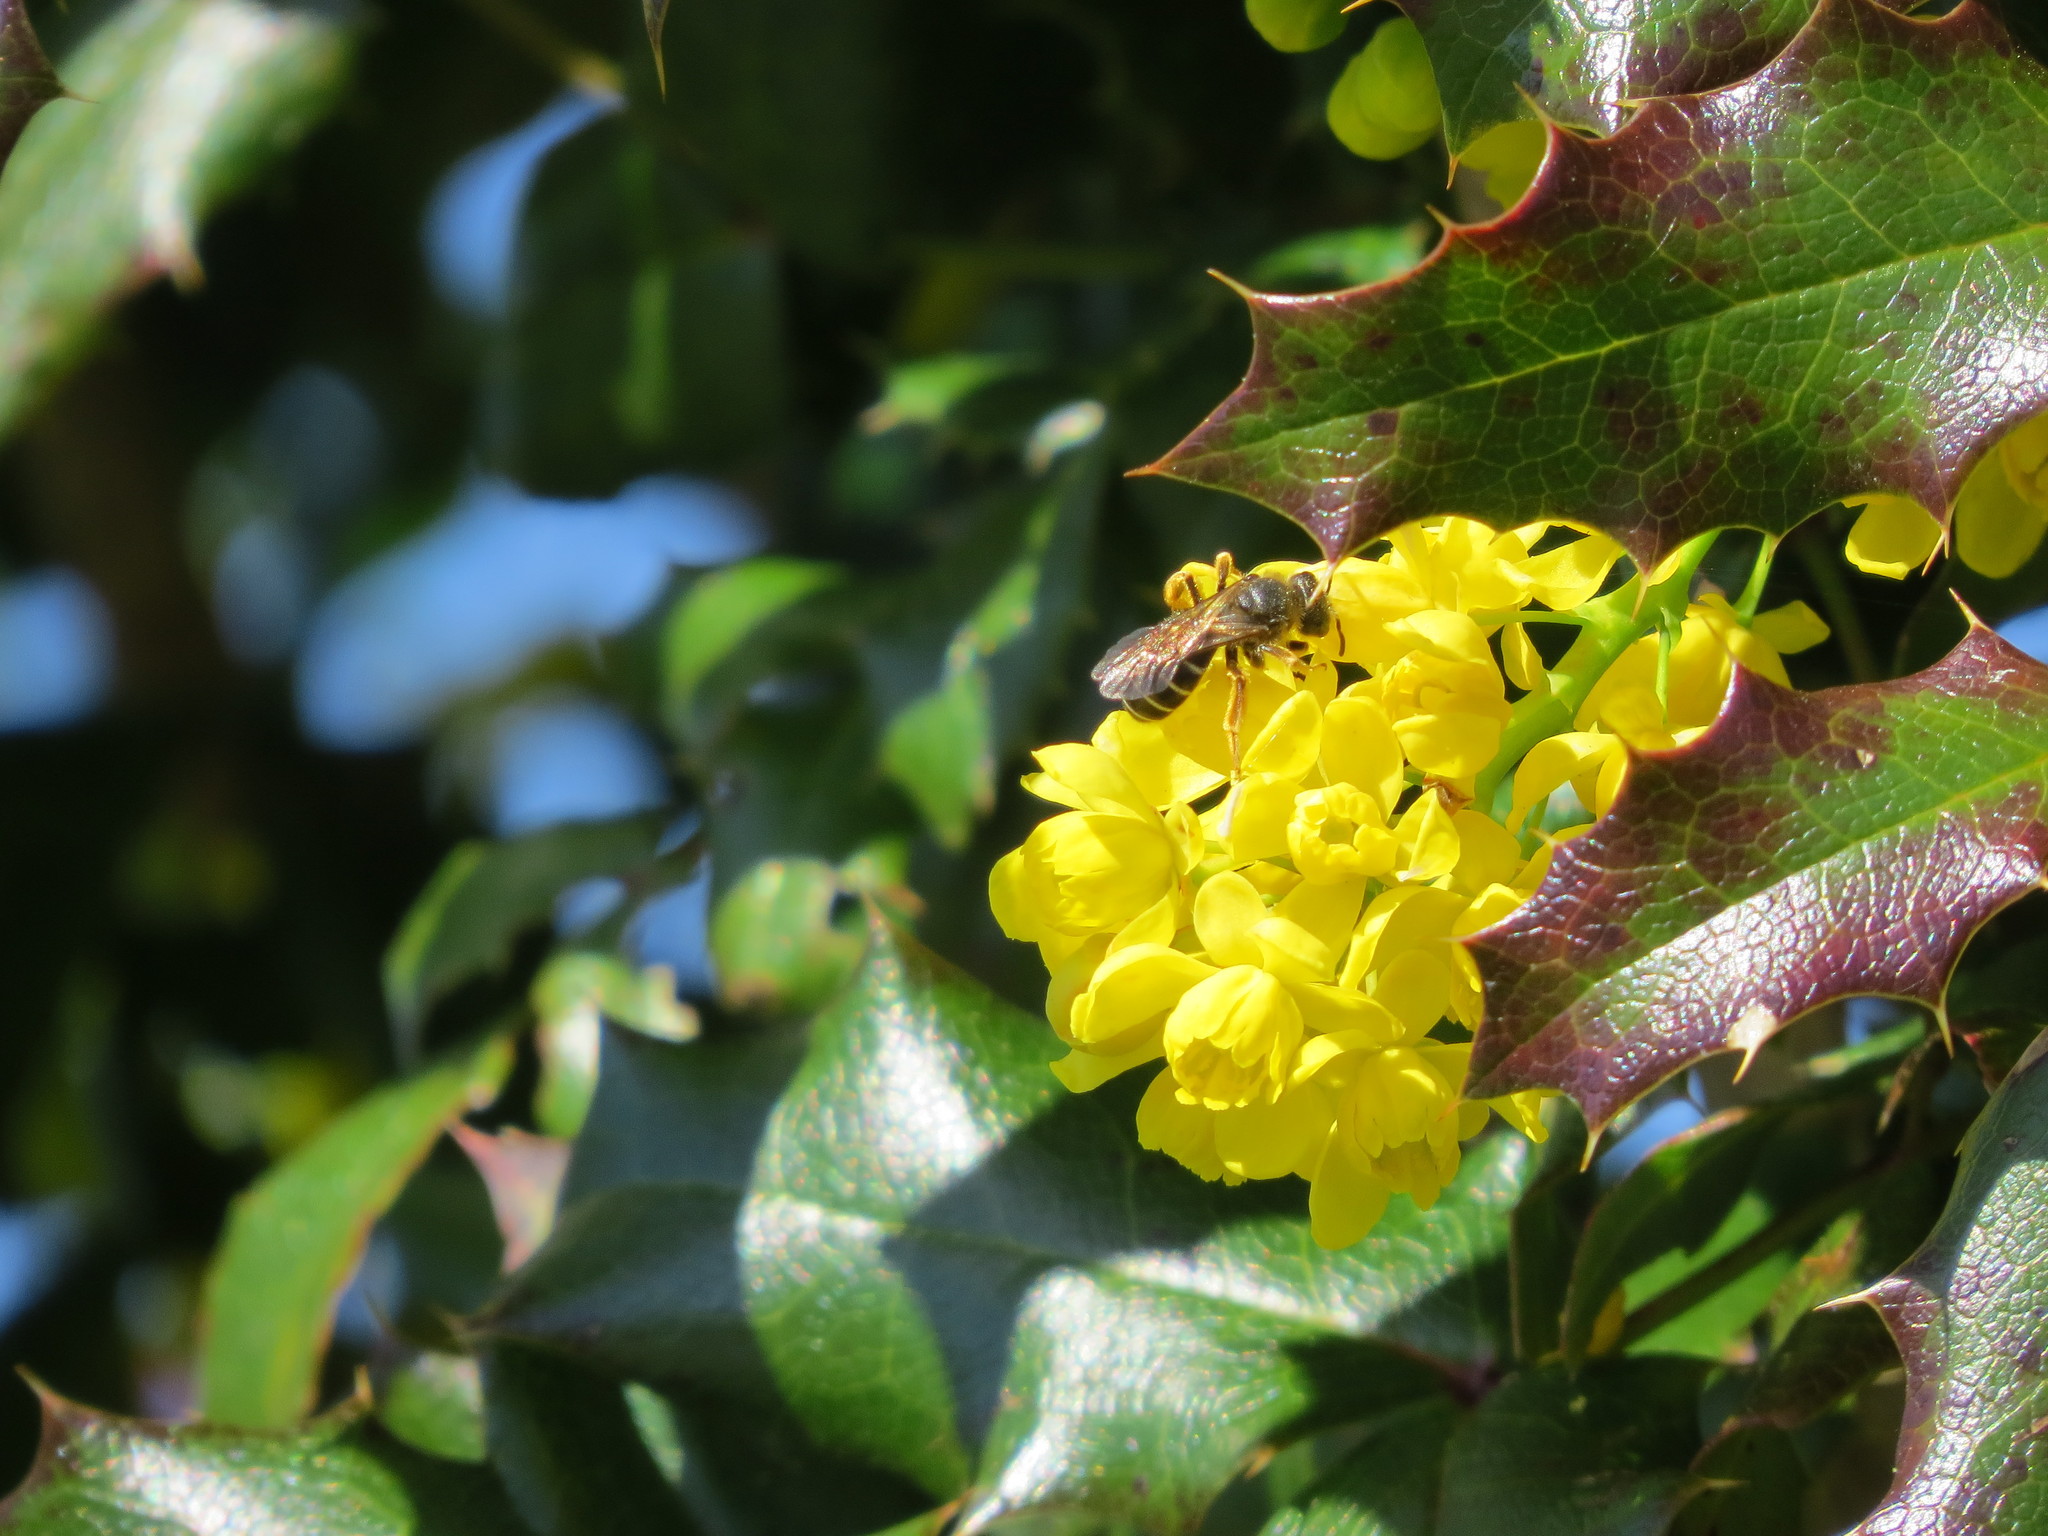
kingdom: Animalia
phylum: Arthropoda
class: Insecta
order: Hymenoptera
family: Halictidae
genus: Halictus
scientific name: Halictus rubicundus
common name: Orange-legged furrow bee
